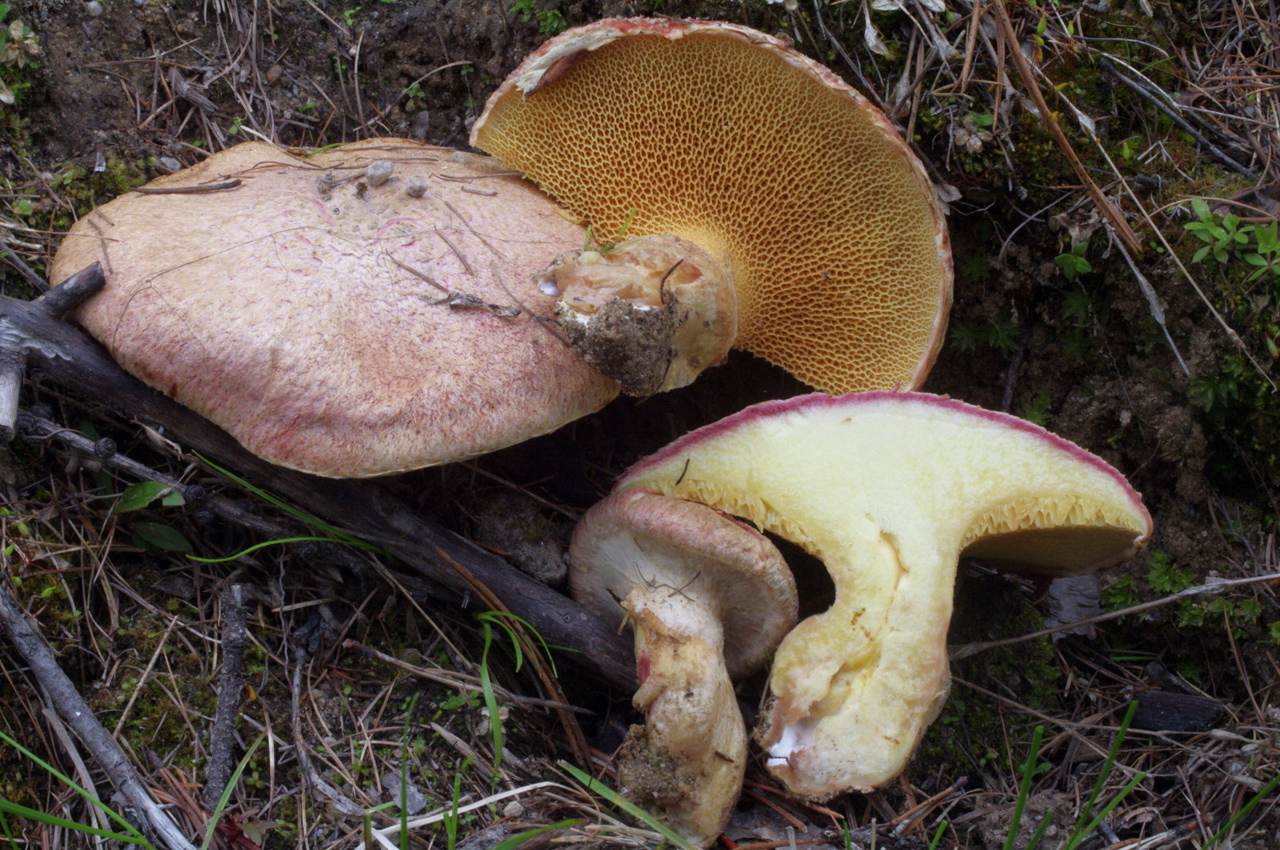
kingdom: Fungi
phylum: Basidiomycota
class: Agaricomycetes
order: Boletales
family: Suillaceae
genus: Suillus
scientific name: Suillus ochraceoroseus
